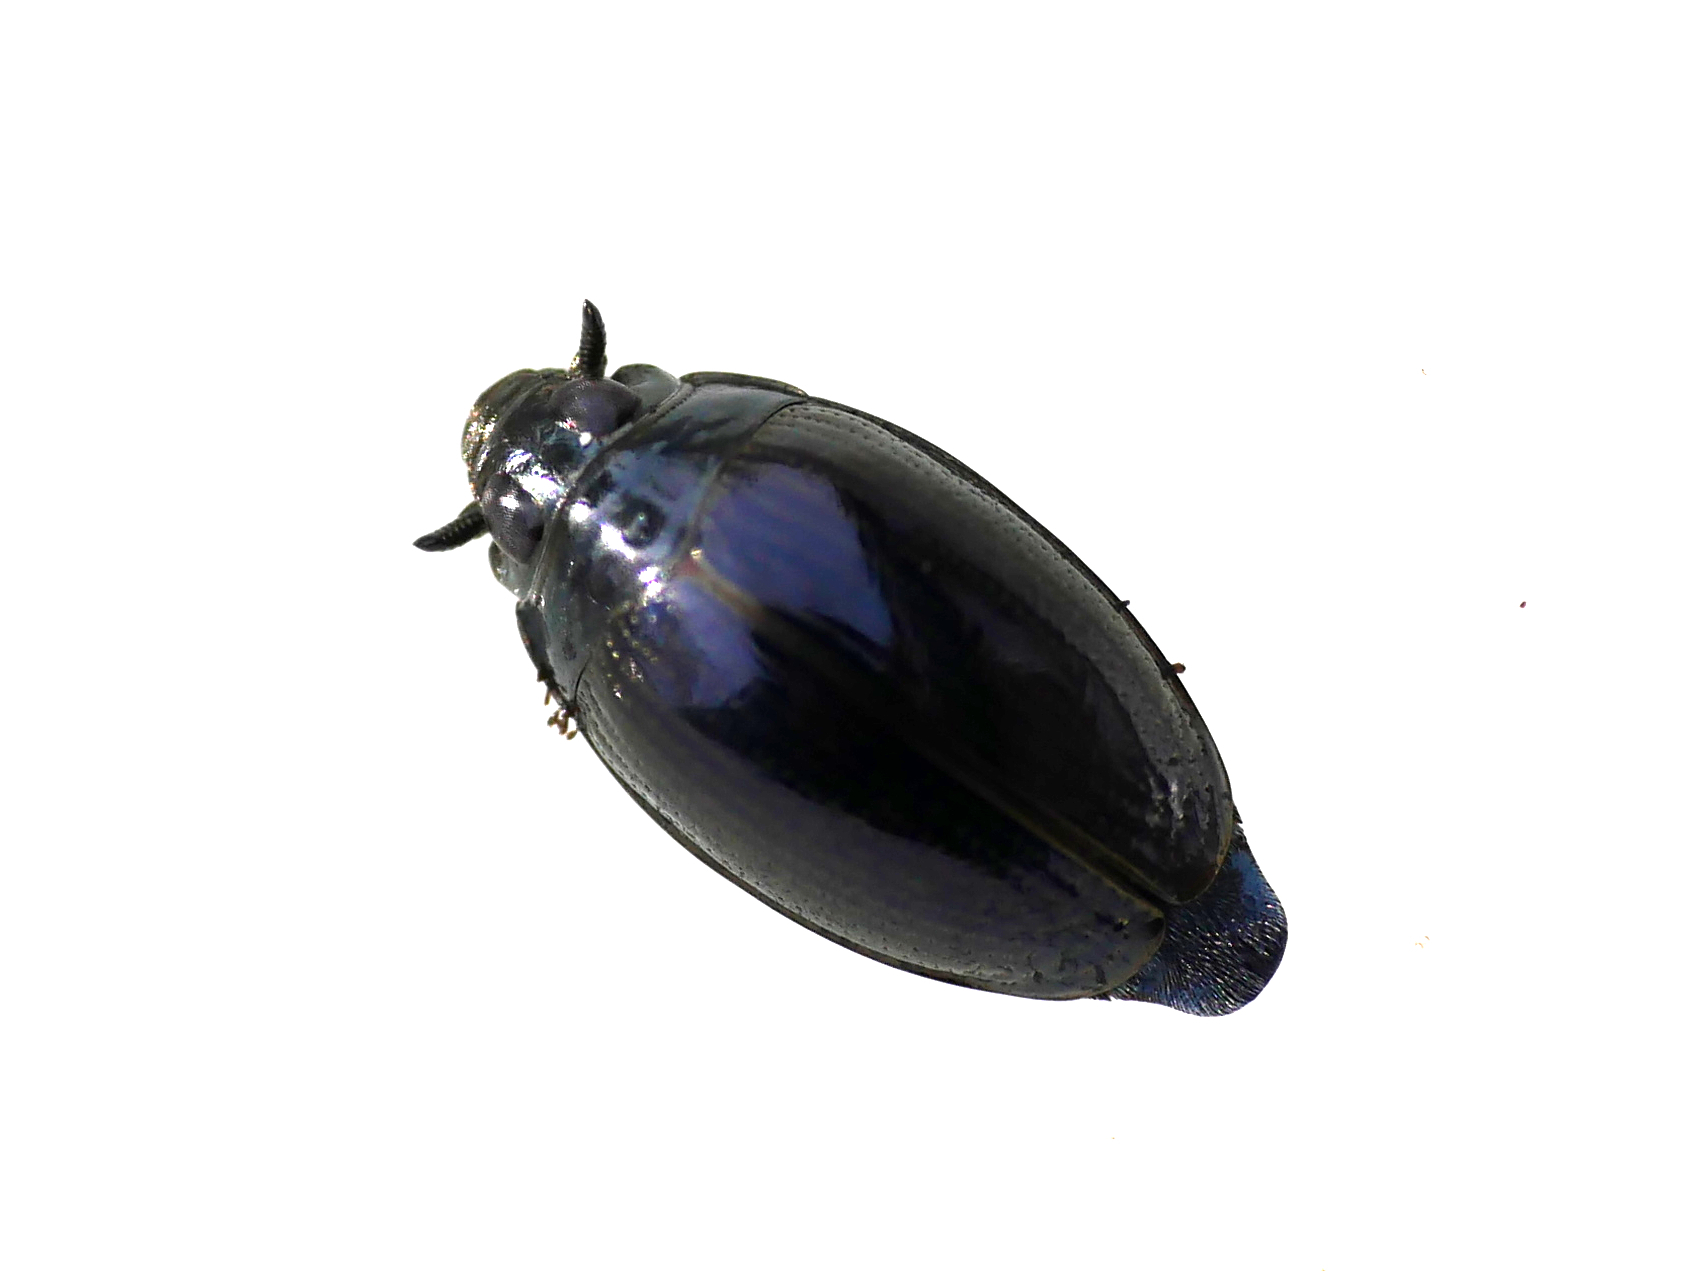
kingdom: Animalia
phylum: Arthropoda
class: Insecta
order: Coleoptera
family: Gyrinidae
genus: Gyrinus
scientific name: Gyrinus
